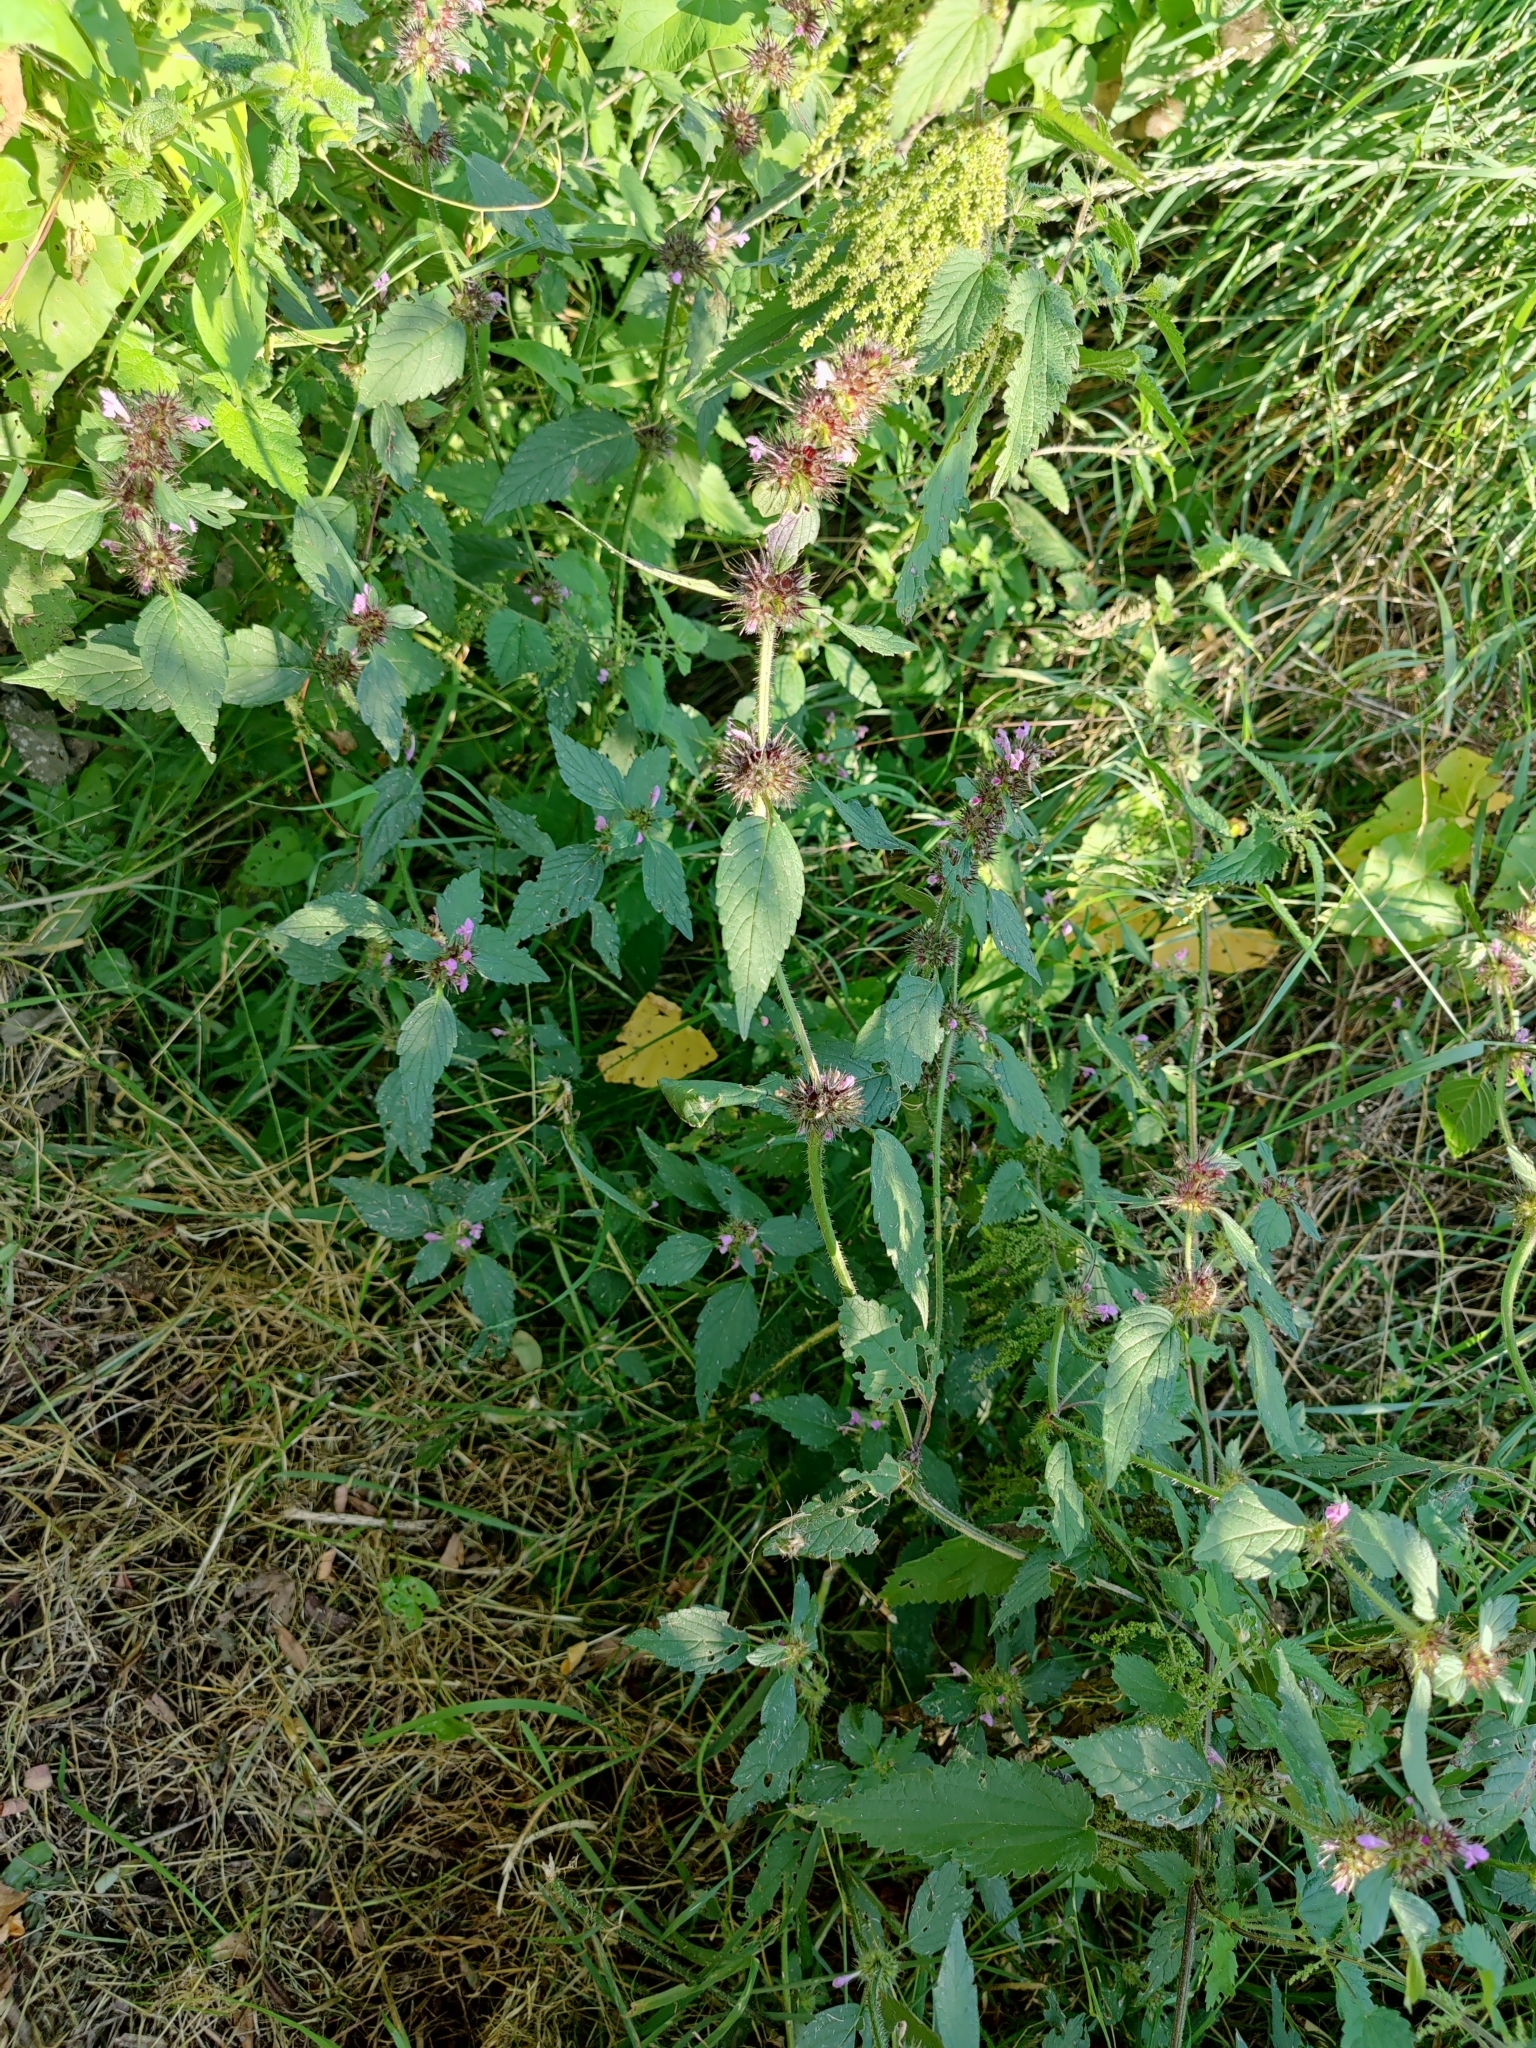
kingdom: Plantae
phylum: Tracheophyta
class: Magnoliopsida
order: Lamiales
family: Lamiaceae
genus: Galeopsis
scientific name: Galeopsis tetrahit
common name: Common hemp-nettle
